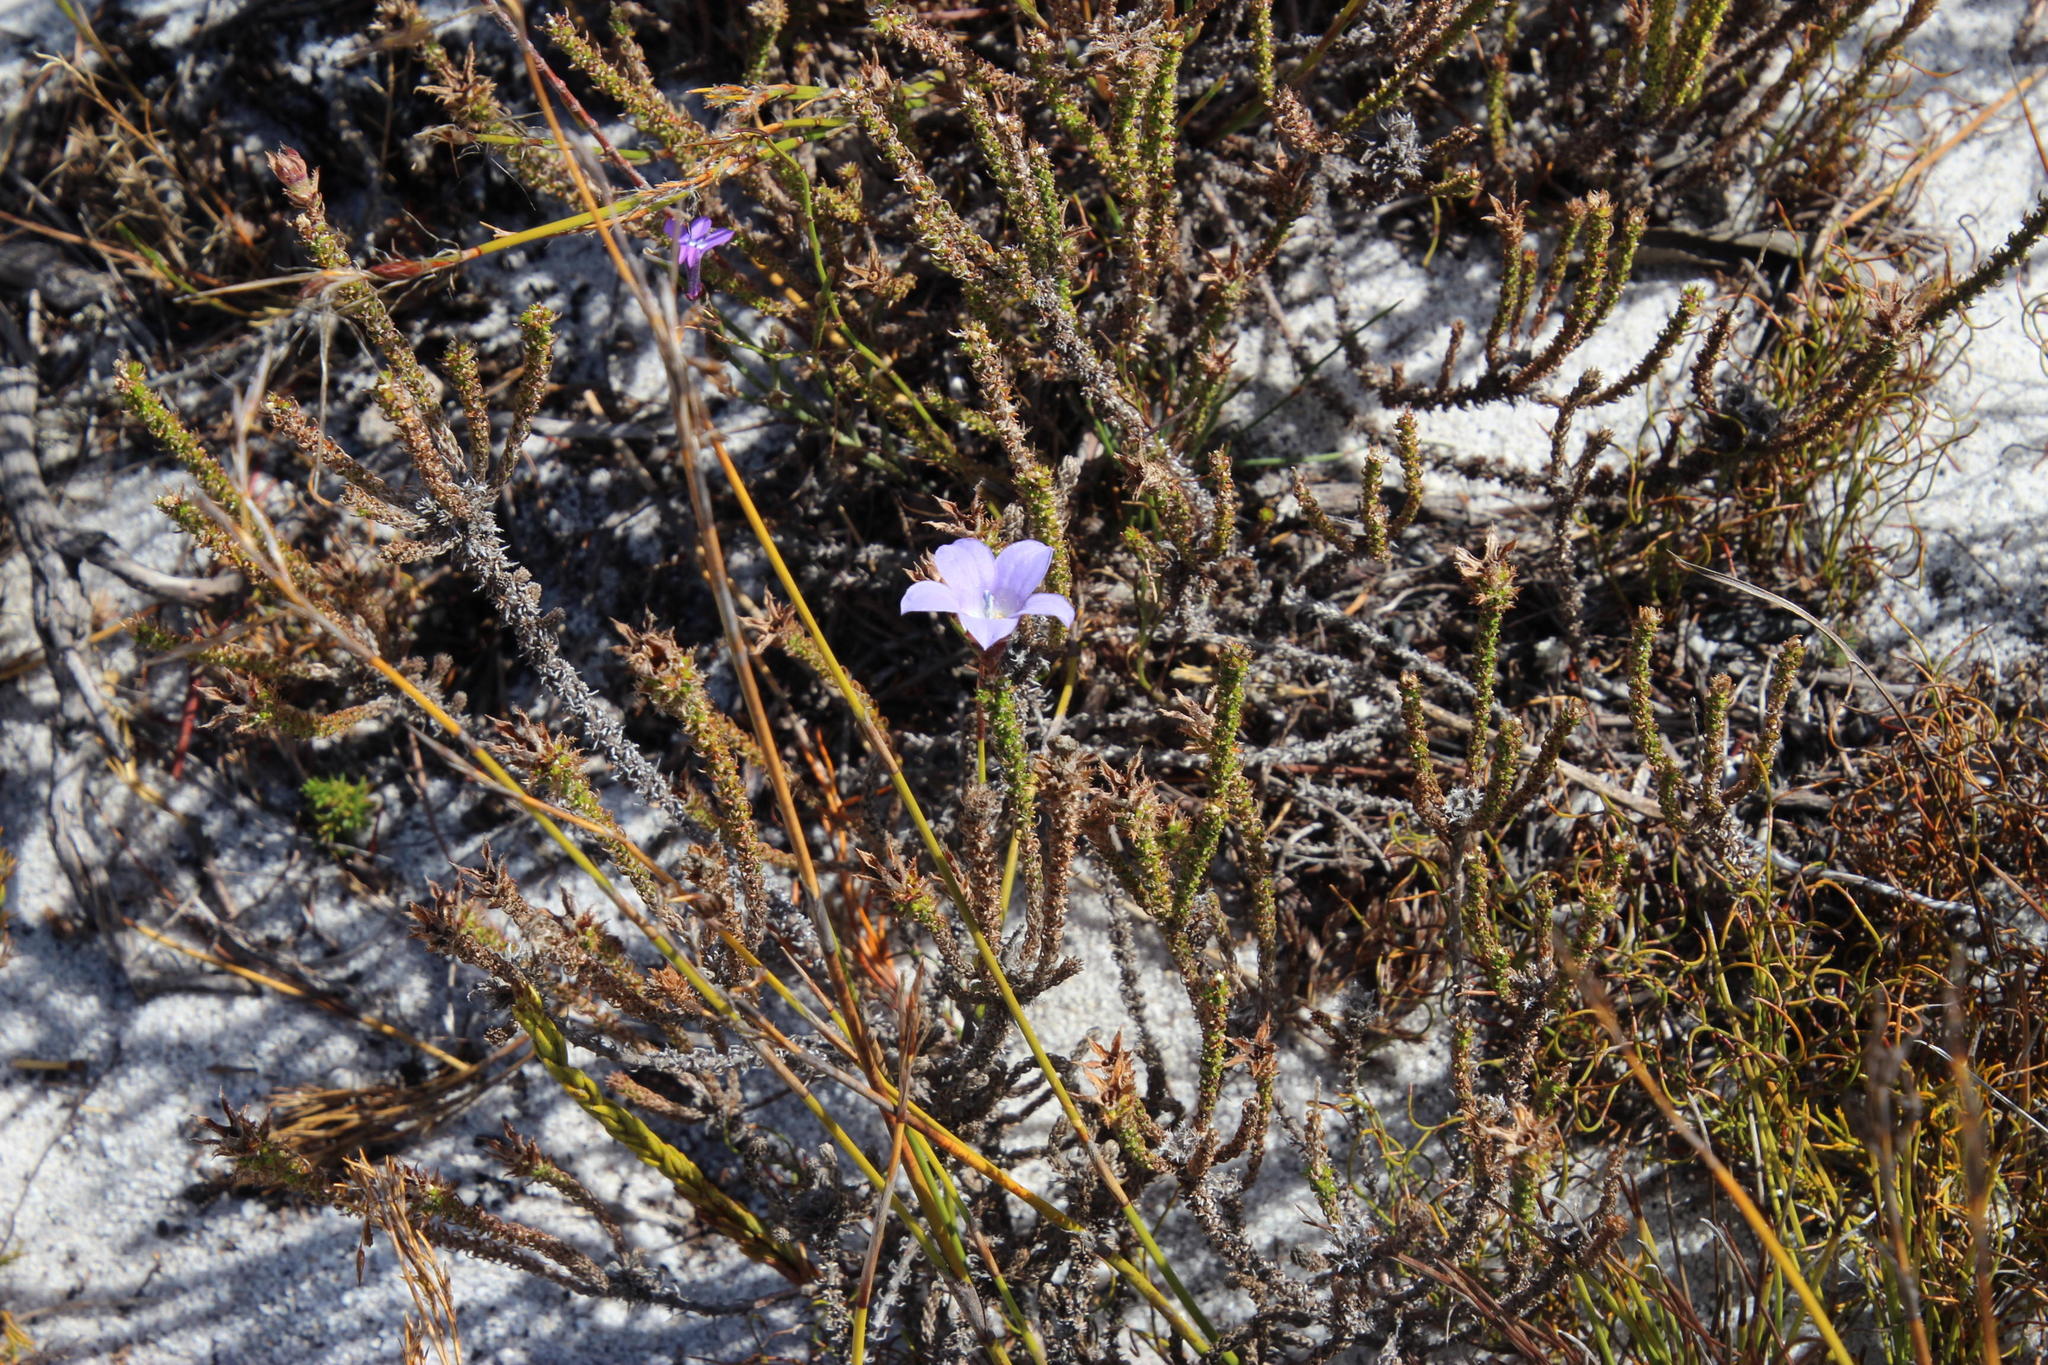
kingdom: Plantae
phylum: Tracheophyta
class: Magnoliopsida
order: Asterales
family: Campanulaceae
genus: Roella
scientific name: Roella triflora
